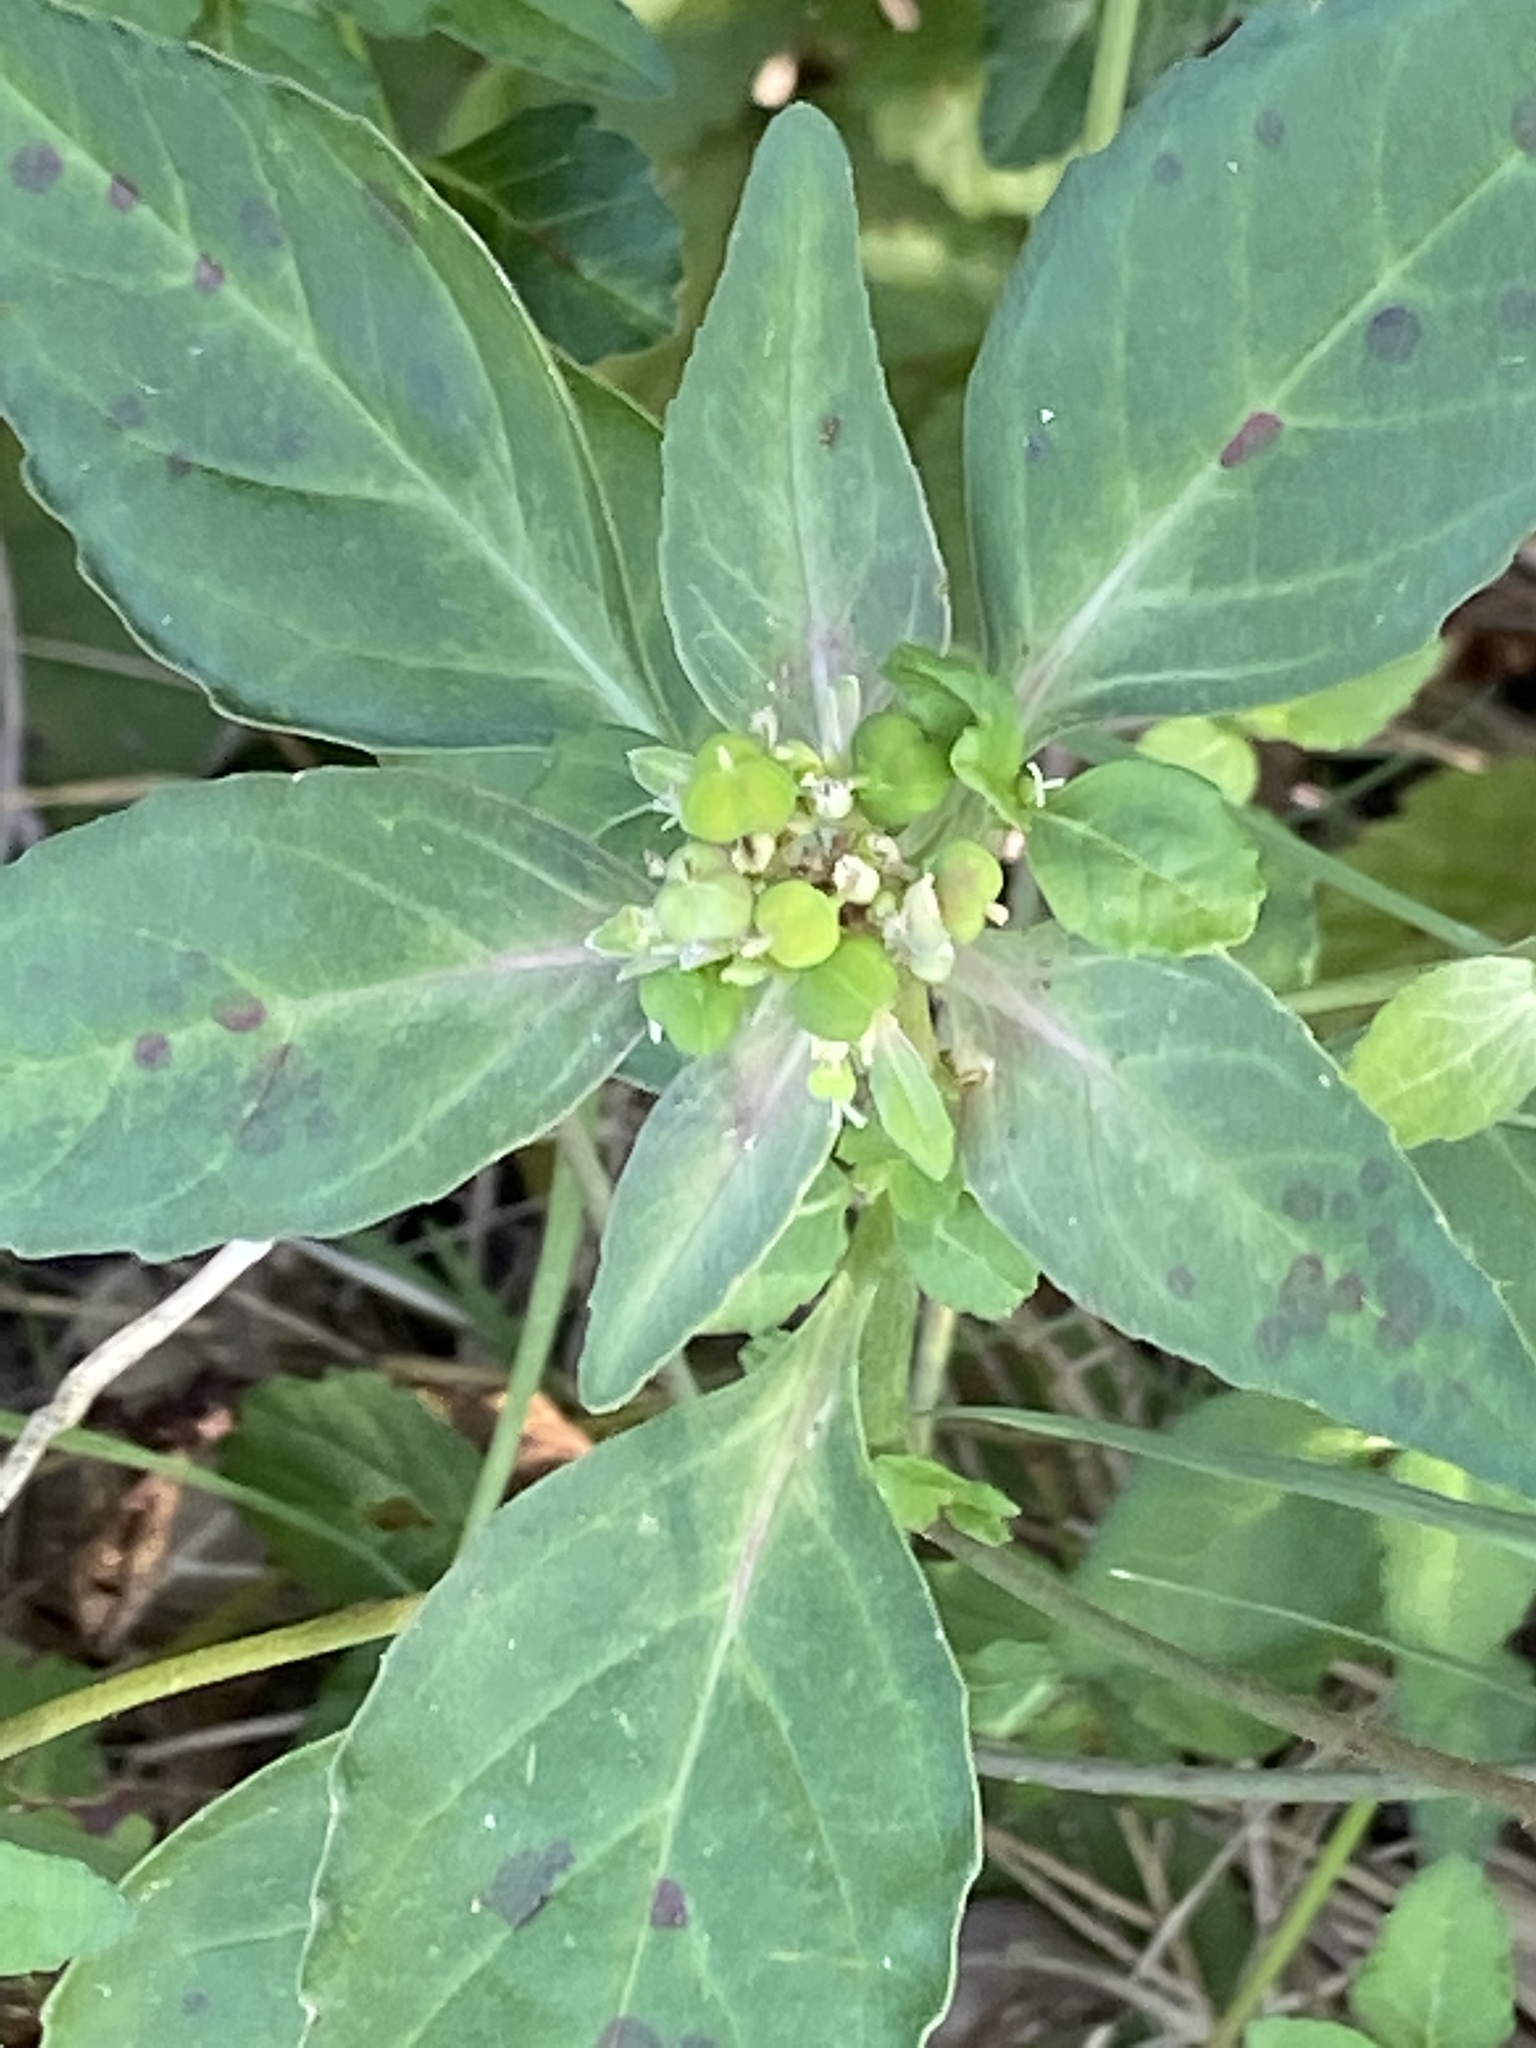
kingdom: Plantae
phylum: Tracheophyta
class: Magnoliopsida
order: Malpighiales
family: Euphorbiaceae
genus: Euphorbia
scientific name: Euphorbia dentata
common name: Dentate spurge
